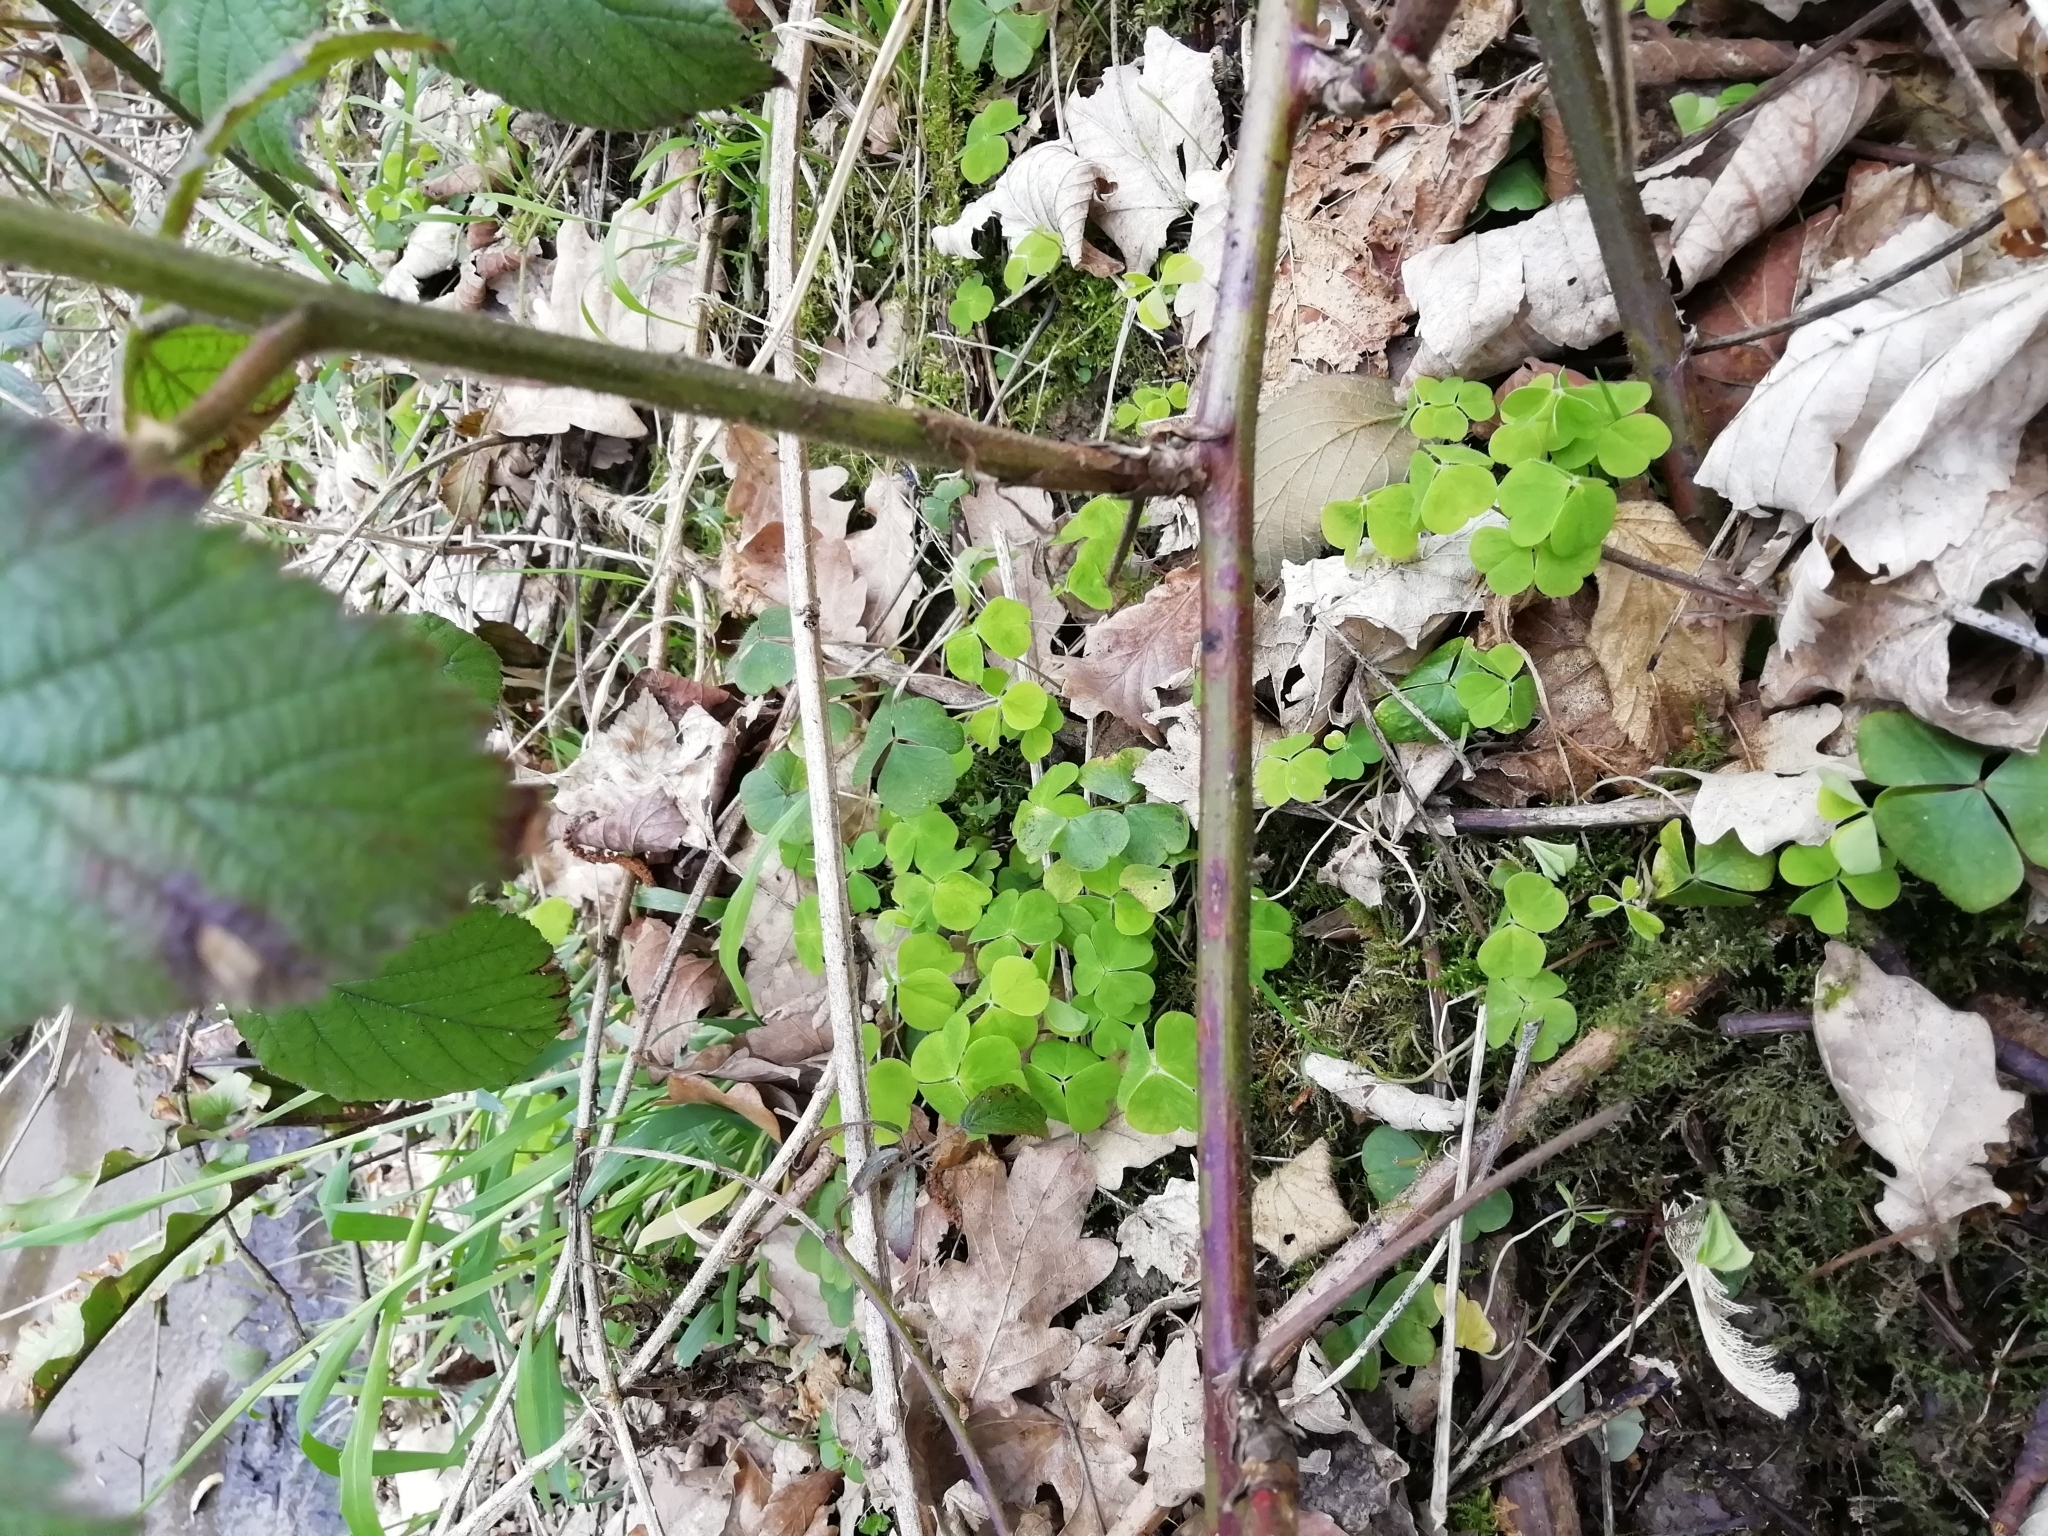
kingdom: Plantae
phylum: Tracheophyta
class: Magnoliopsida
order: Oxalidales
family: Oxalidaceae
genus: Oxalis
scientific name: Oxalis acetosella
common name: Wood-sorrel
